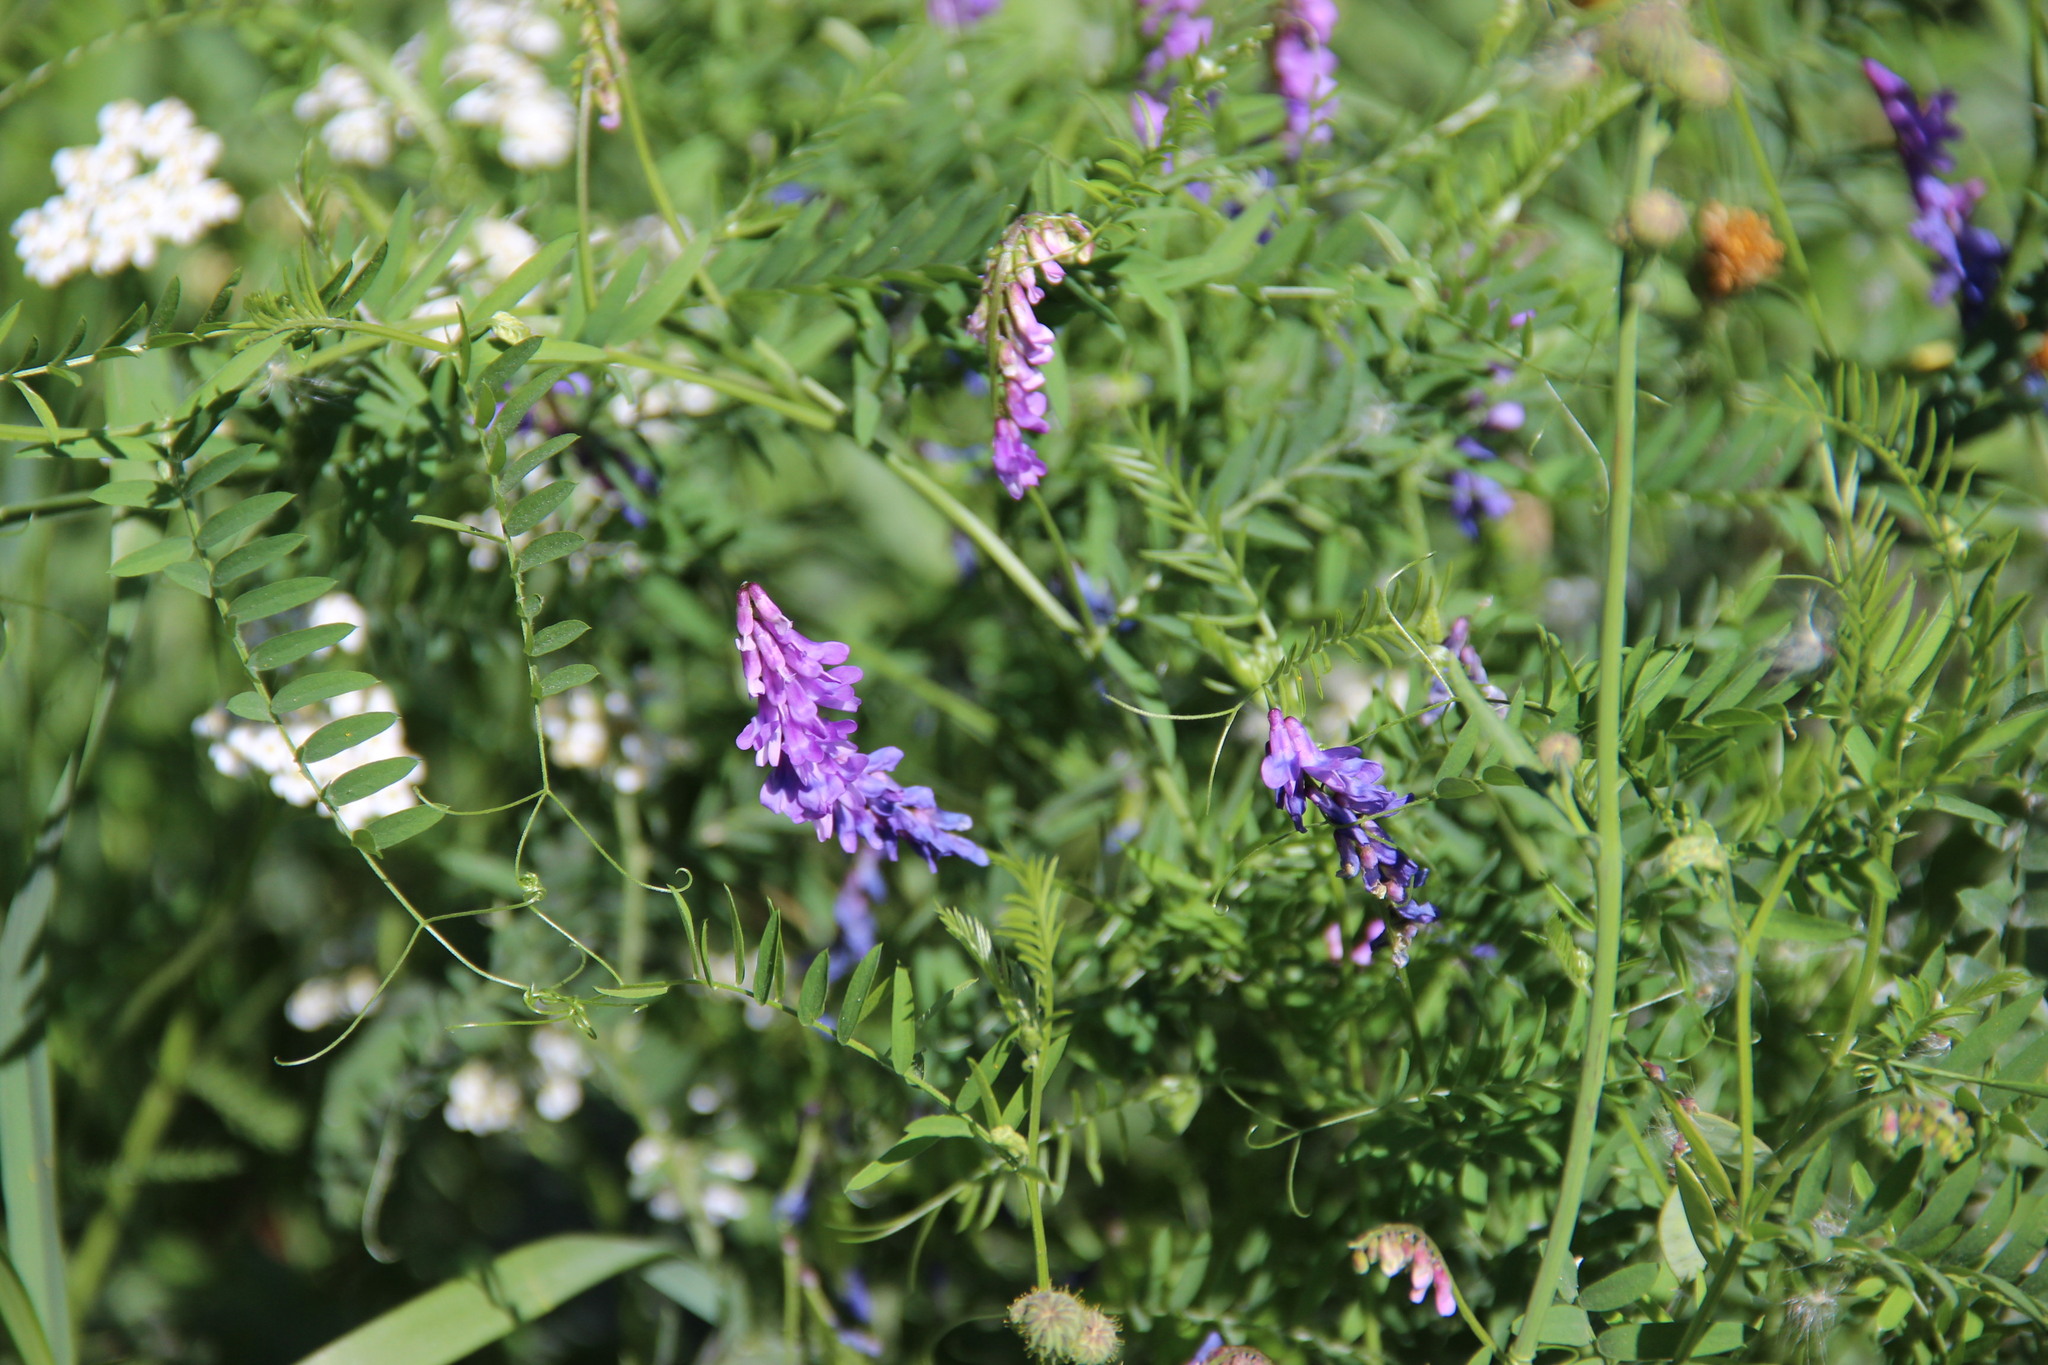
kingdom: Plantae
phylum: Tracheophyta
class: Magnoliopsida
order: Fabales
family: Fabaceae
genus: Vicia
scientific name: Vicia cracca
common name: Bird vetch
